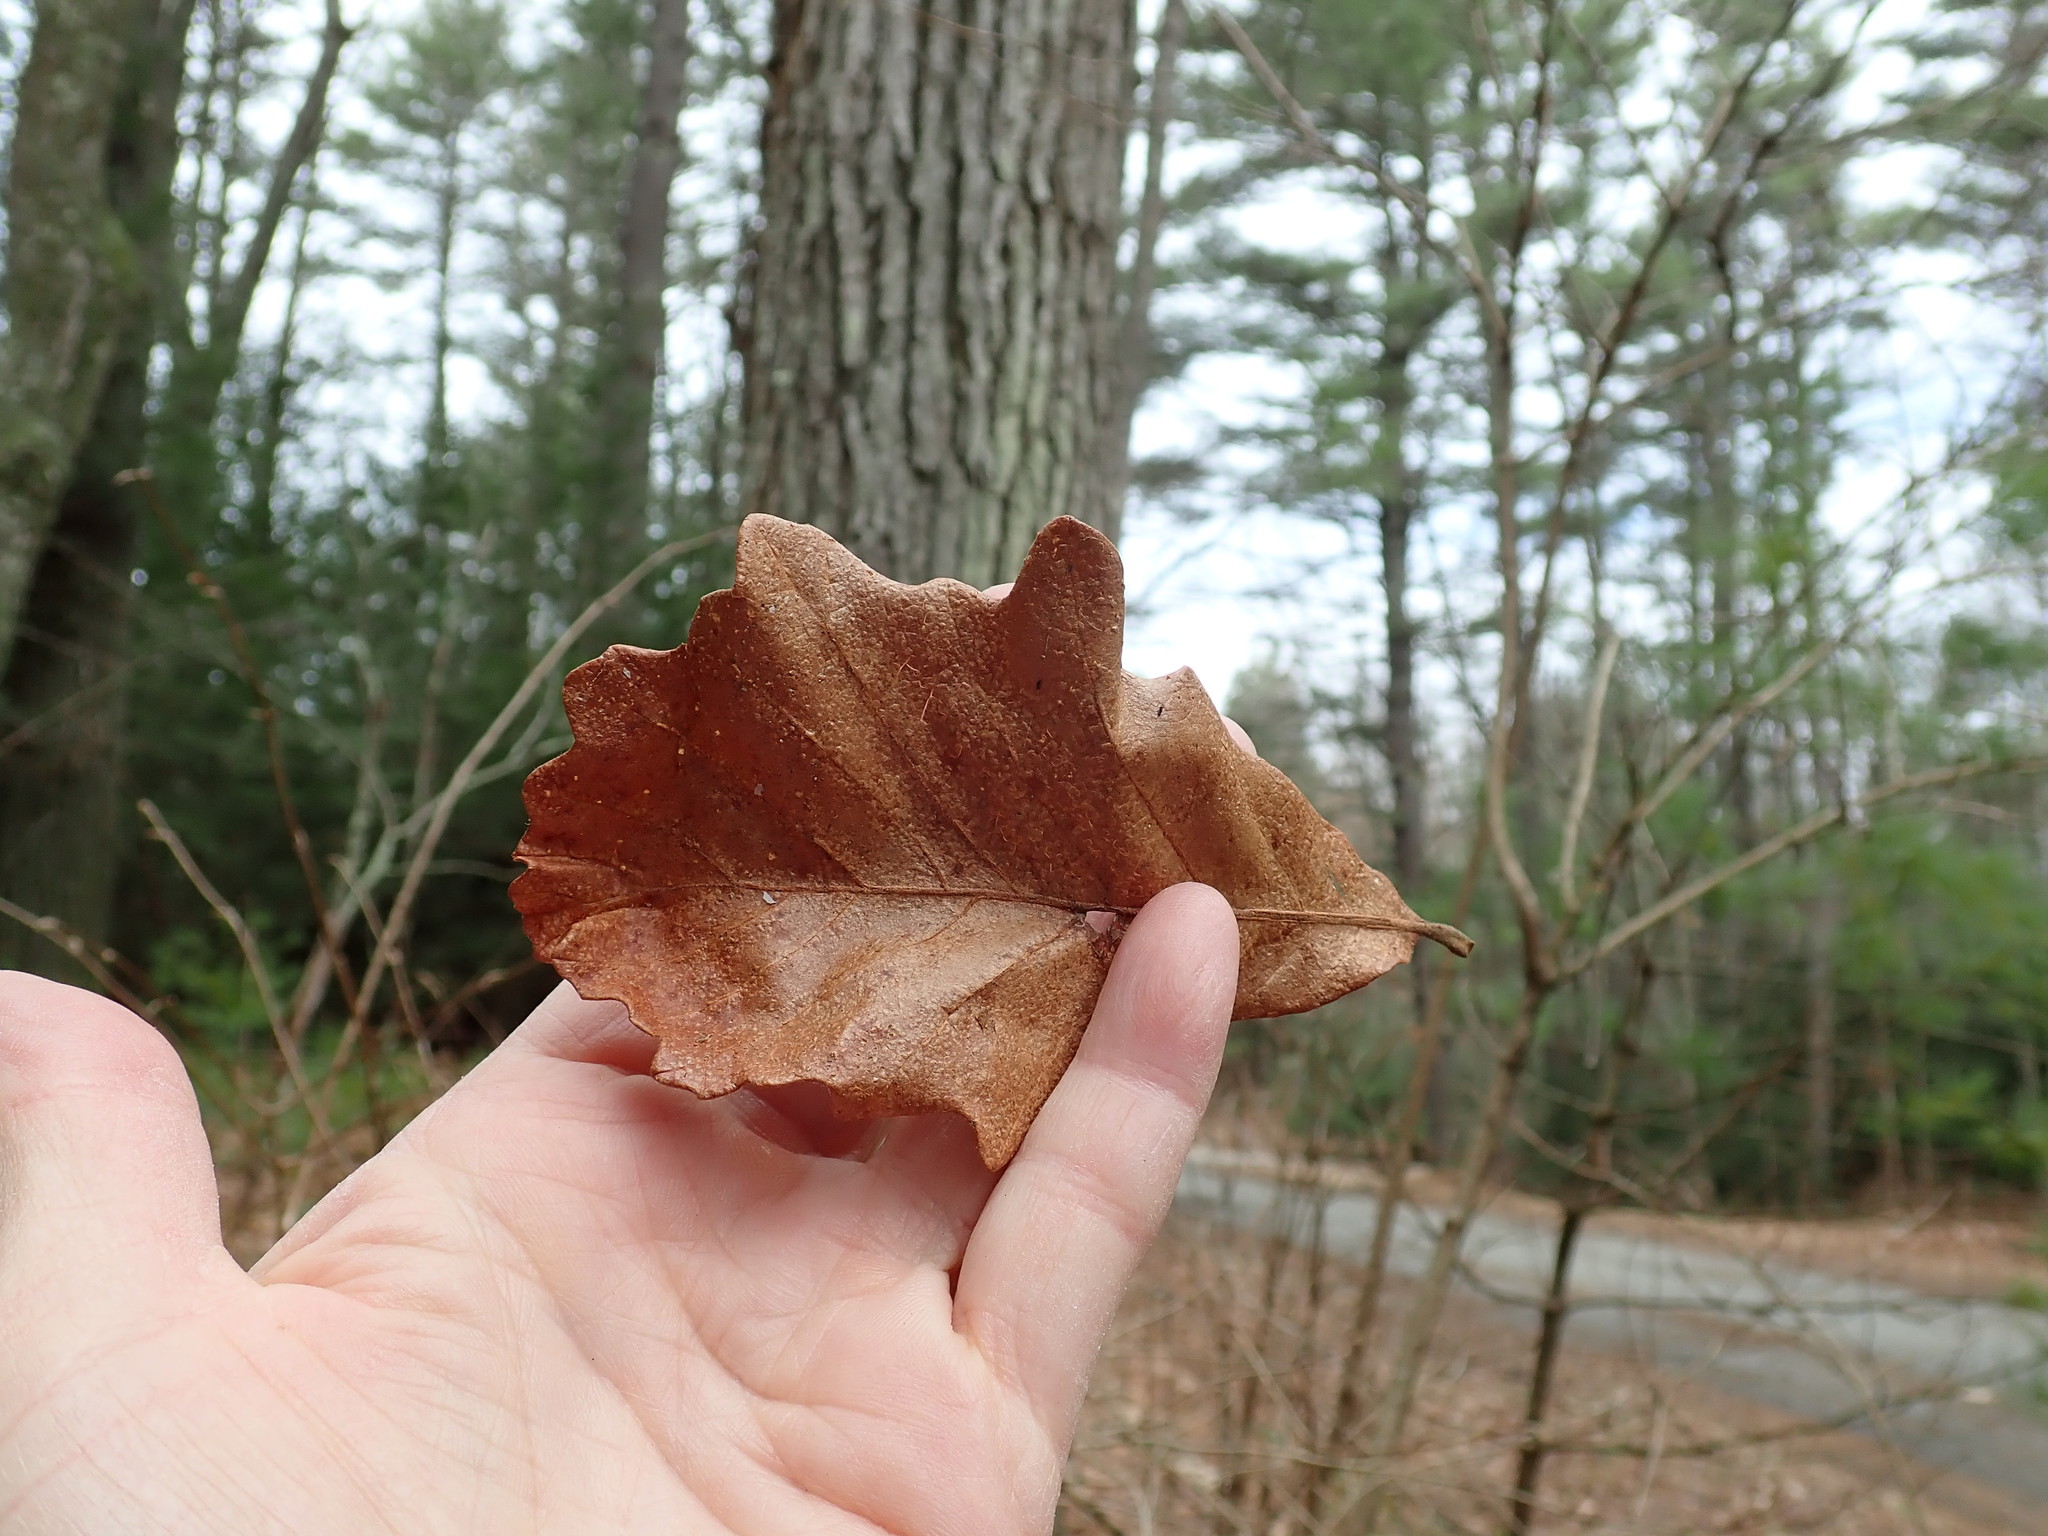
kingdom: Plantae
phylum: Tracheophyta
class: Magnoliopsida
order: Fagales
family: Fagaceae
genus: Quercus
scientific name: Quercus bicolor
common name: Swamp white oak
